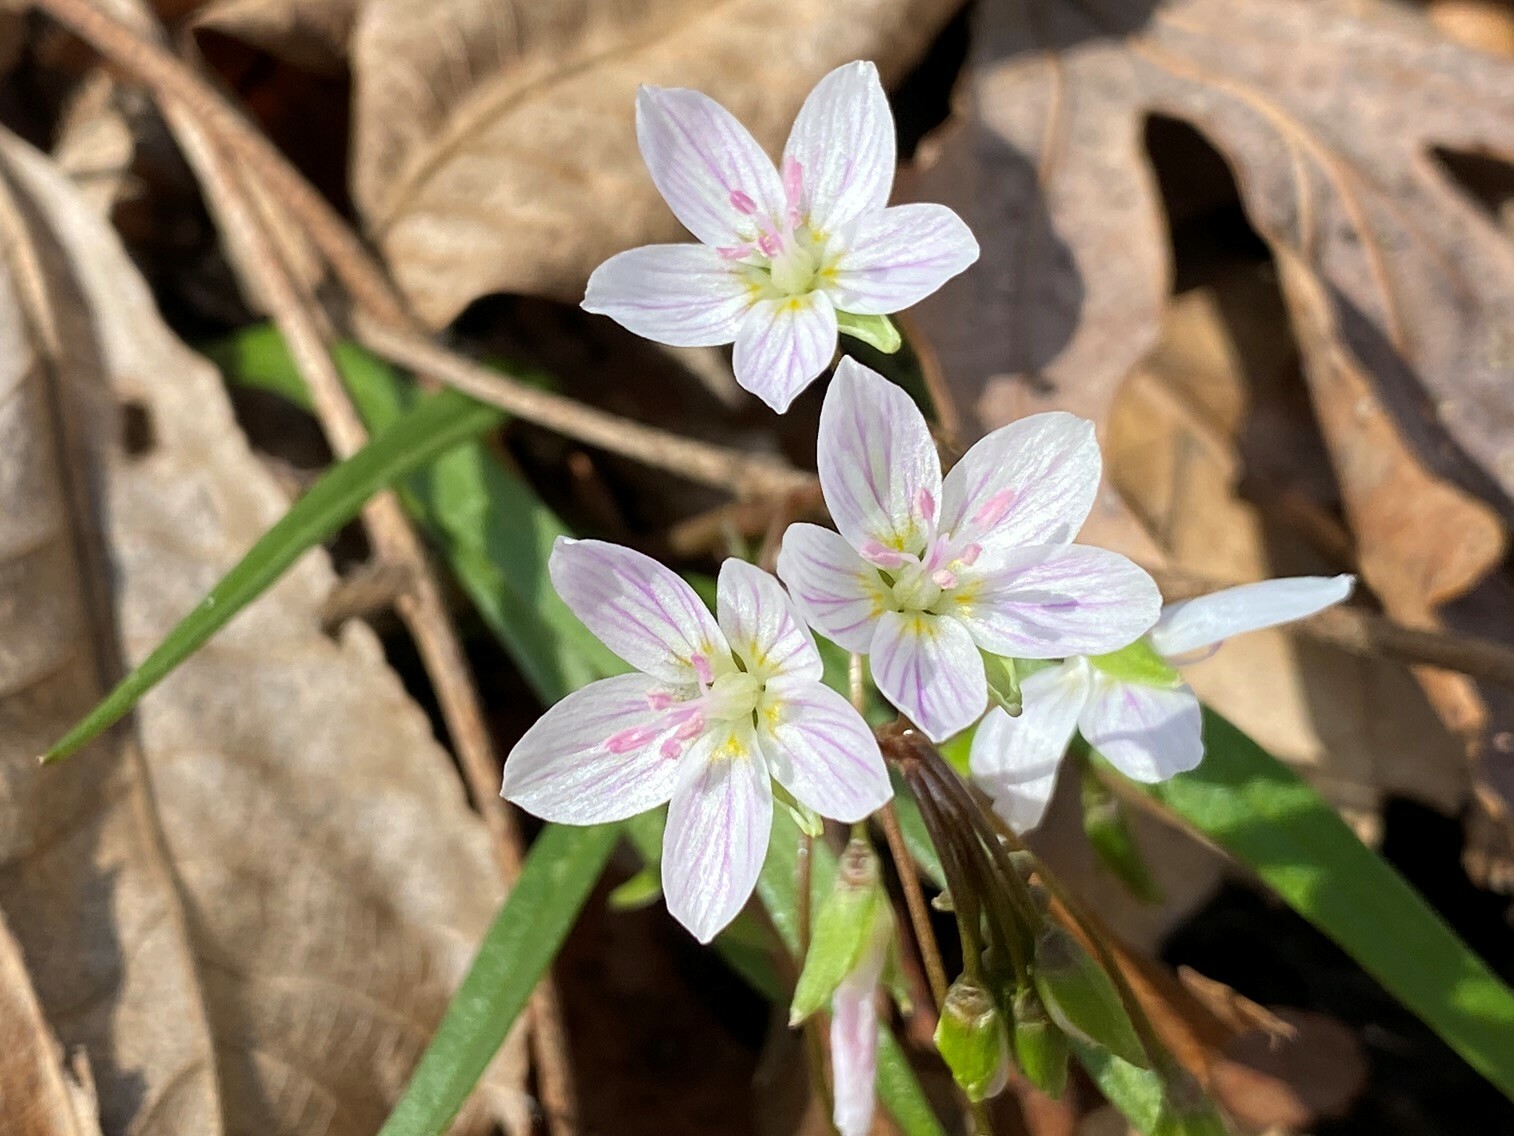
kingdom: Plantae
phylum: Tracheophyta
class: Magnoliopsida
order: Caryophyllales
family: Montiaceae
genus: Claytonia
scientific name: Claytonia virginica
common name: Virginia springbeauty
